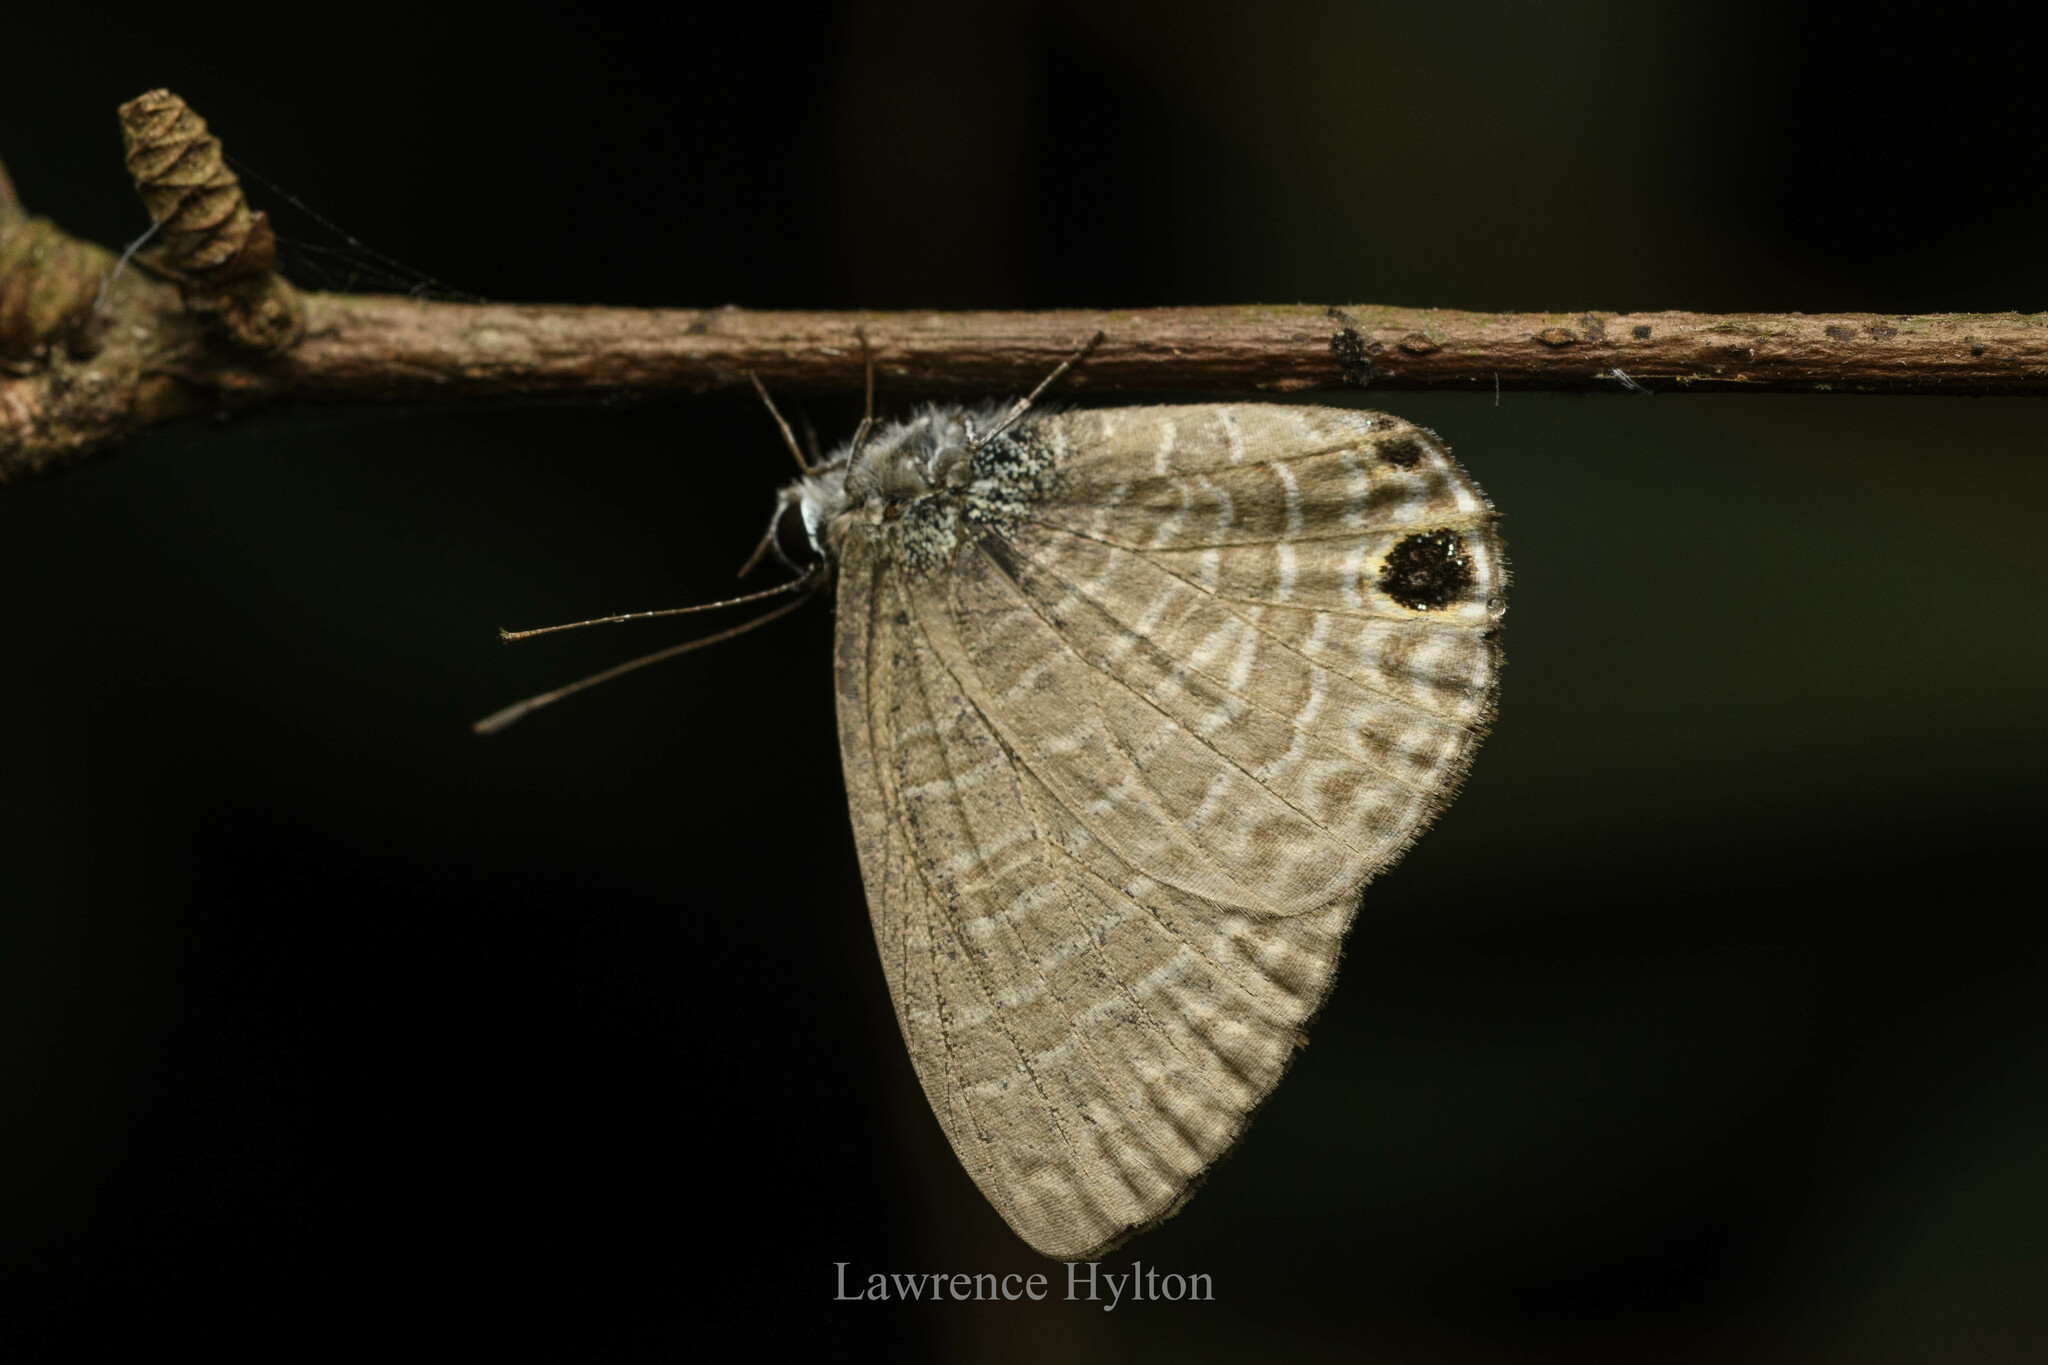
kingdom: Animalia
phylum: Arthropoda
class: Insecta
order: Lepidoptera
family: Lycaenidae
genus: Nacaduba
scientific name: Nacaduba berenice
